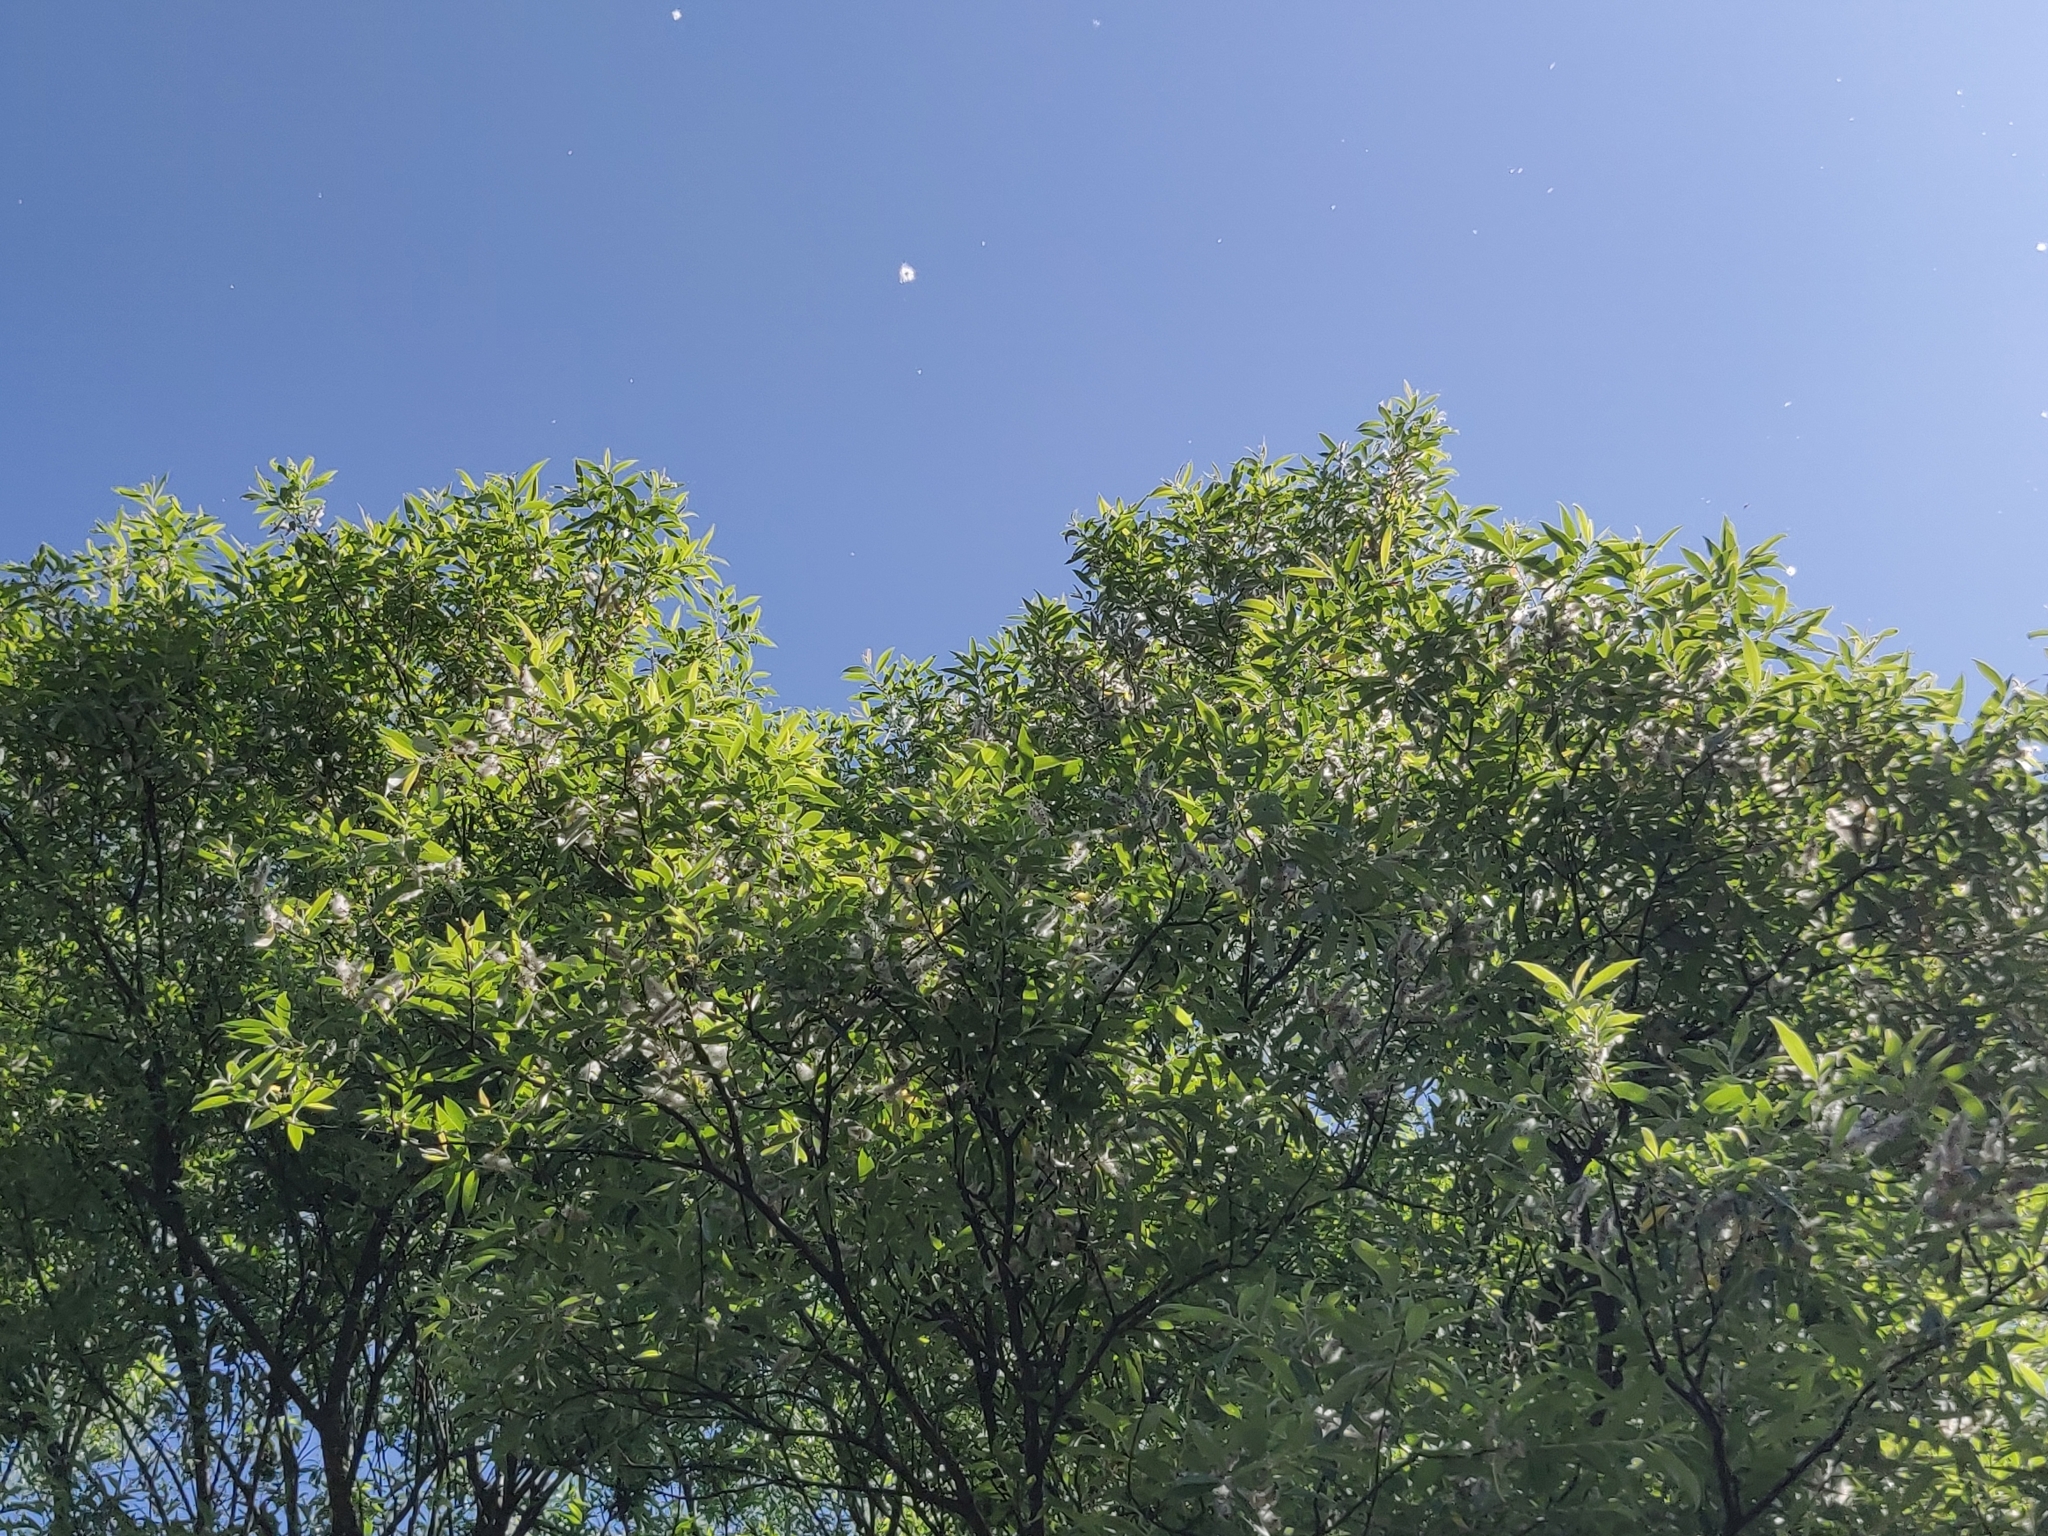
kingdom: Plantae
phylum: Tracheophyta
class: Magnoliopsida
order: Malpighiales
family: Salicaceae
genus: Salix
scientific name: Salix tetrasperma
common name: Indian willow
